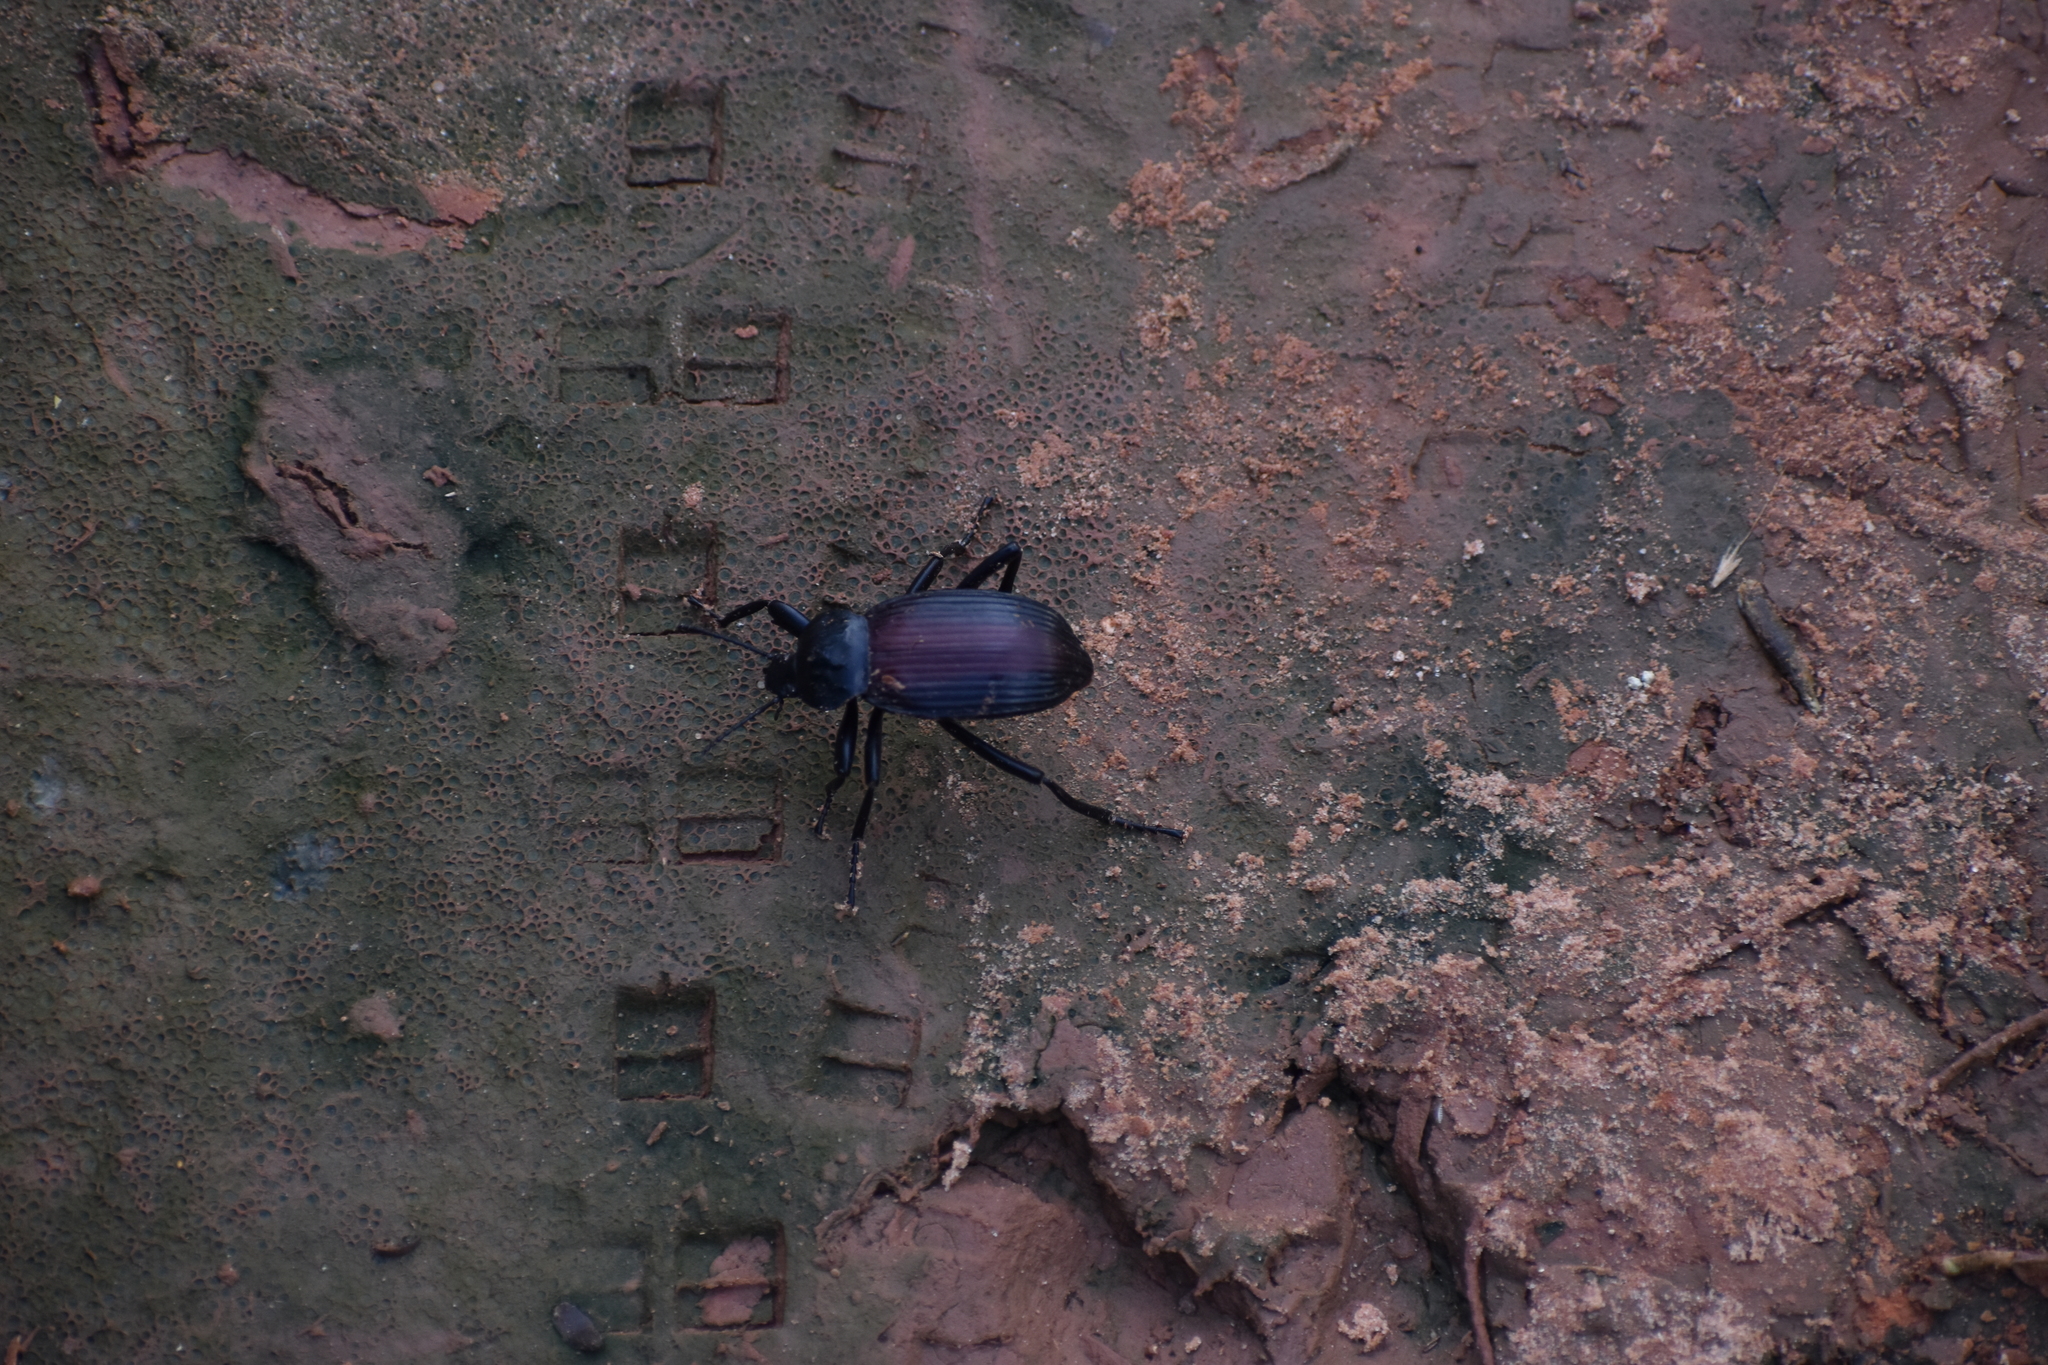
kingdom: Animalia
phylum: Arthropoda
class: Insecta
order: Coleoptera
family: Tenebrionidae
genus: Eleodes
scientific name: Eleodes suturalis
